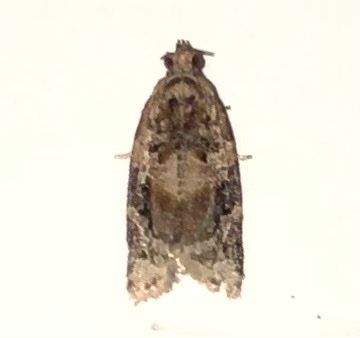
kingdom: Animalia
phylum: Arthropoda
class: Insecta
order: Lepidoptera
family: Tortricidae
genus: Argyrotaenia
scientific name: Argyrotaenia velutinana
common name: Red-banded leafroller moth
